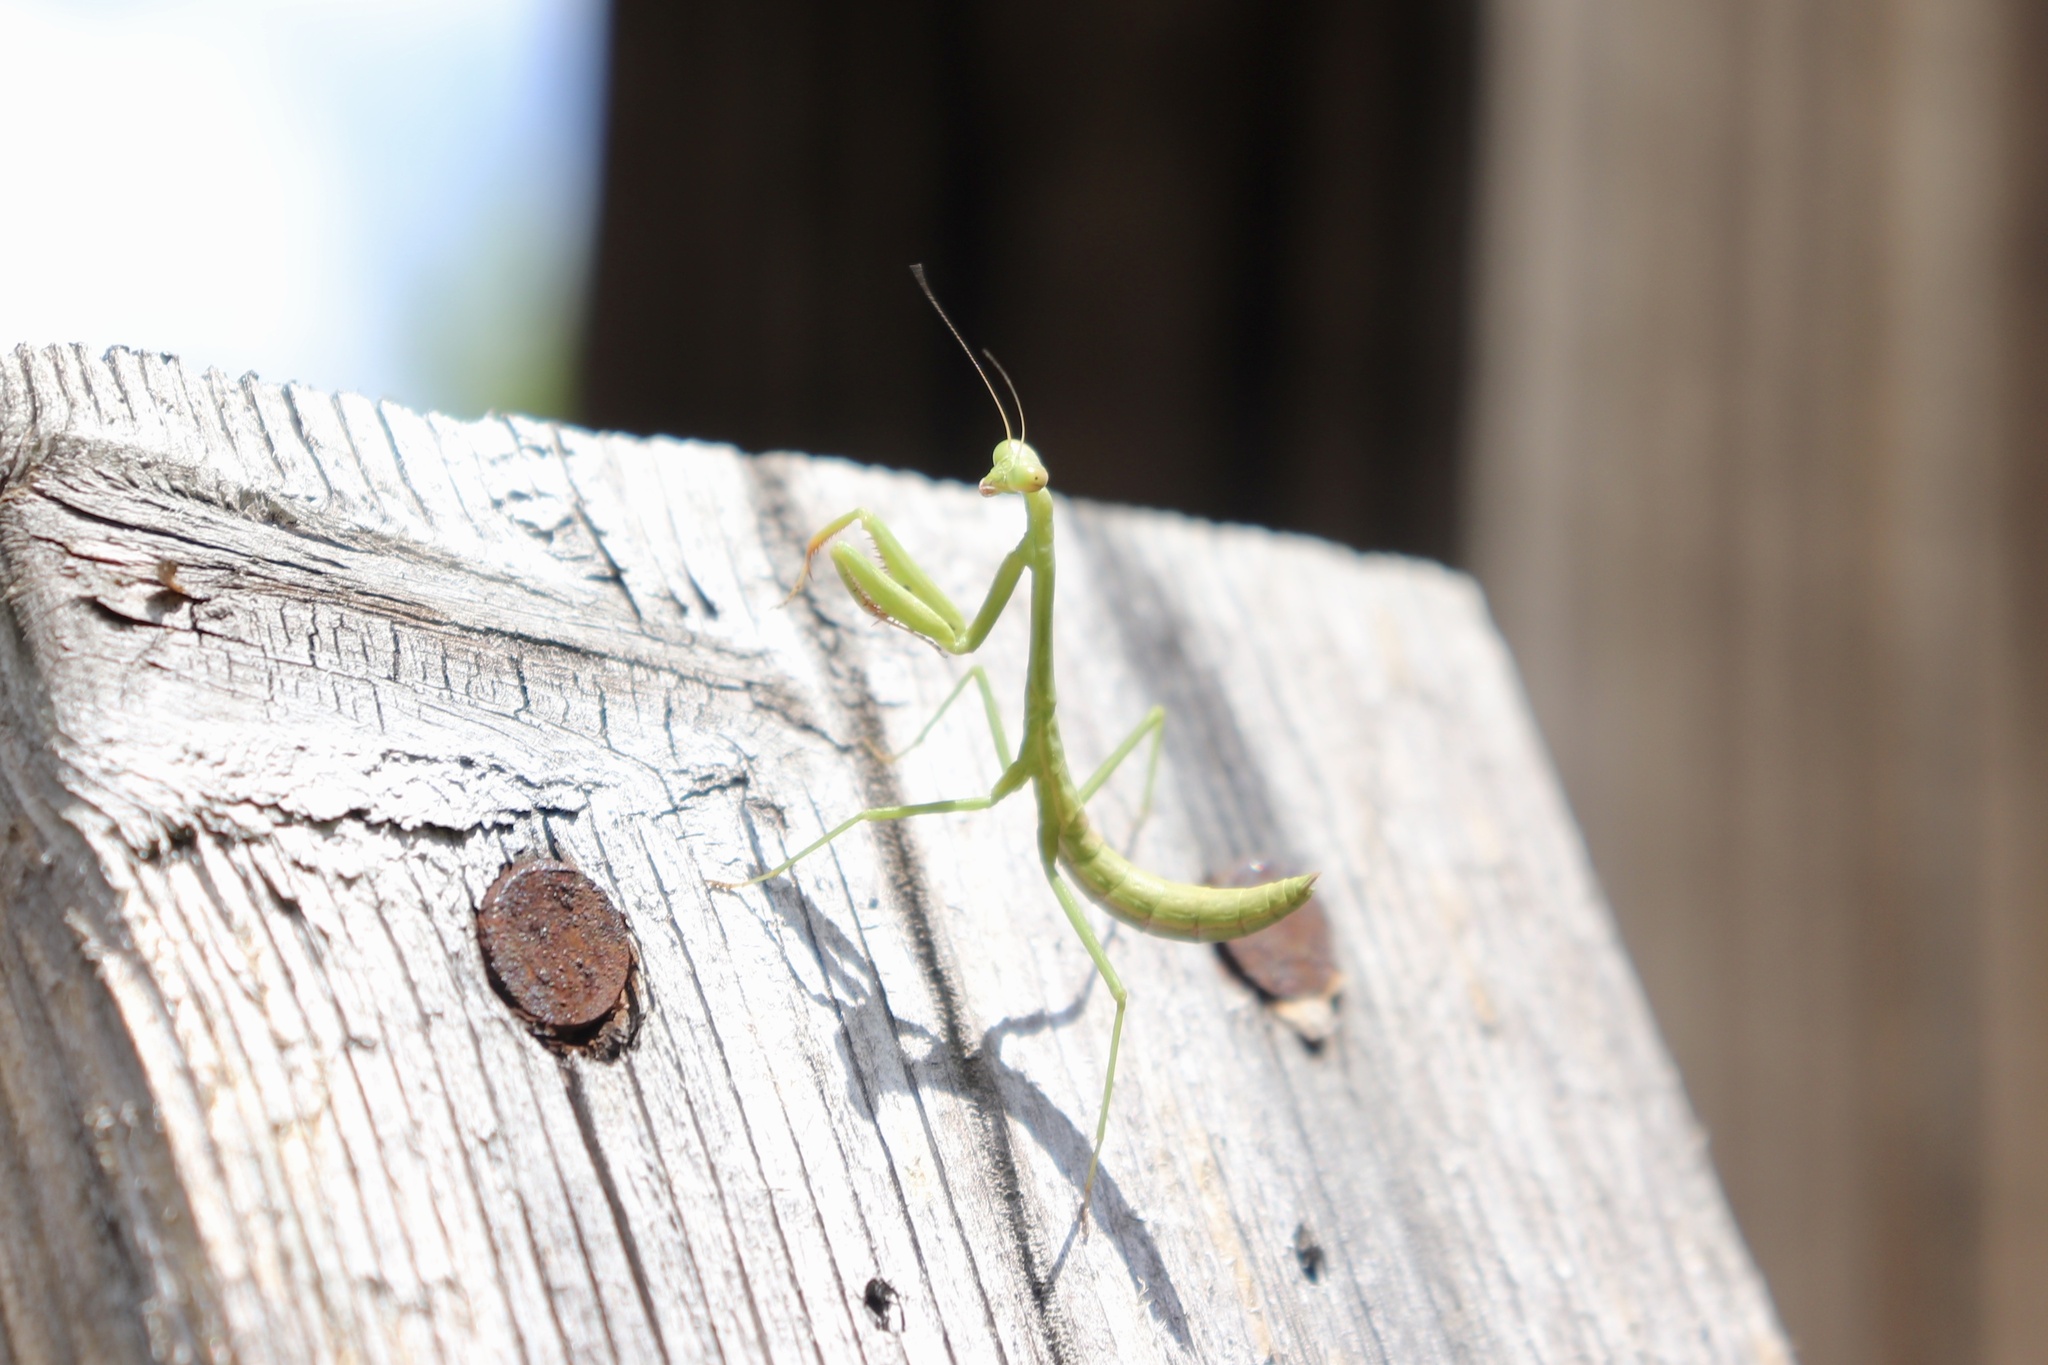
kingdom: Animalia
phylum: Arthropoda
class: Insecta
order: Mantodea
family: Mantidae
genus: Stagmomantis
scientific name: Stagmomantis carolina
